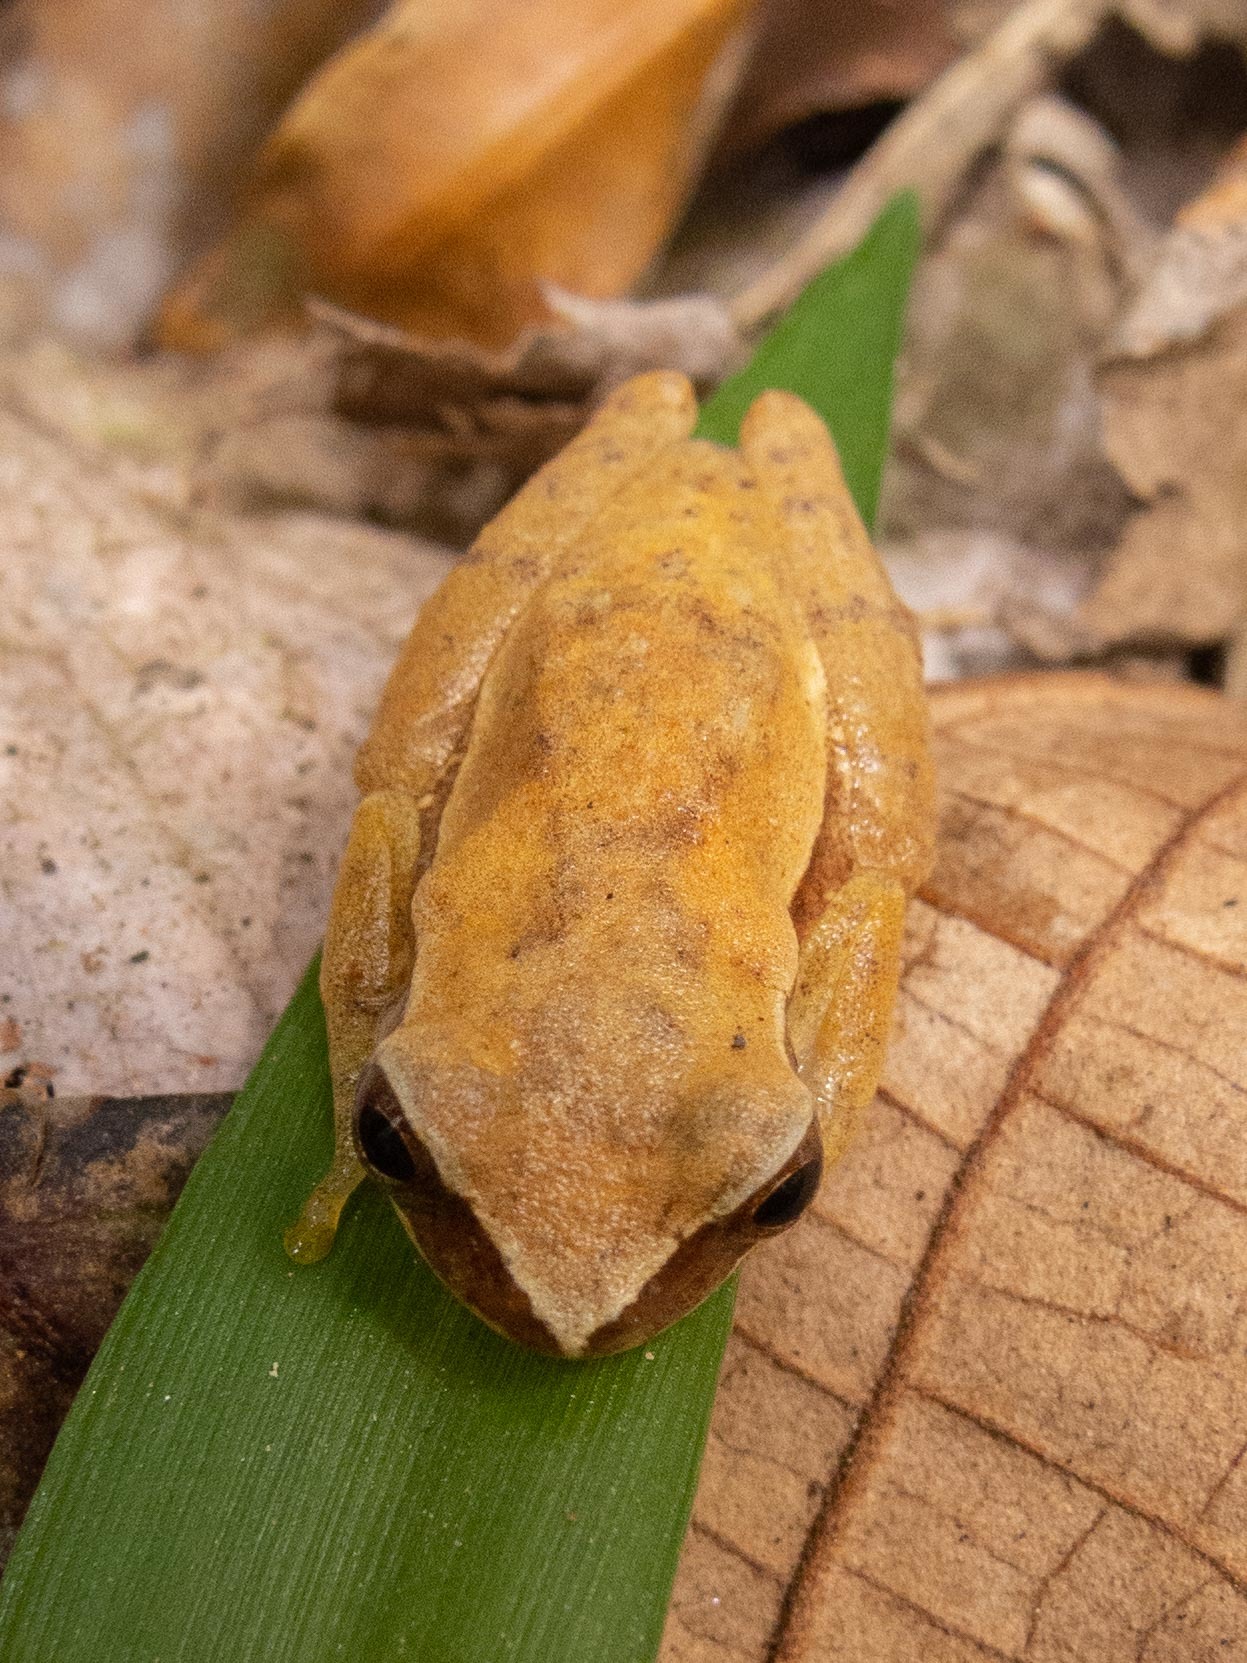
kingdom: Animalia
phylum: Chordata
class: Amphibia
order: Anura
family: Hylidae
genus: Dendropsophus
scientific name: Dendropsophus branneri
